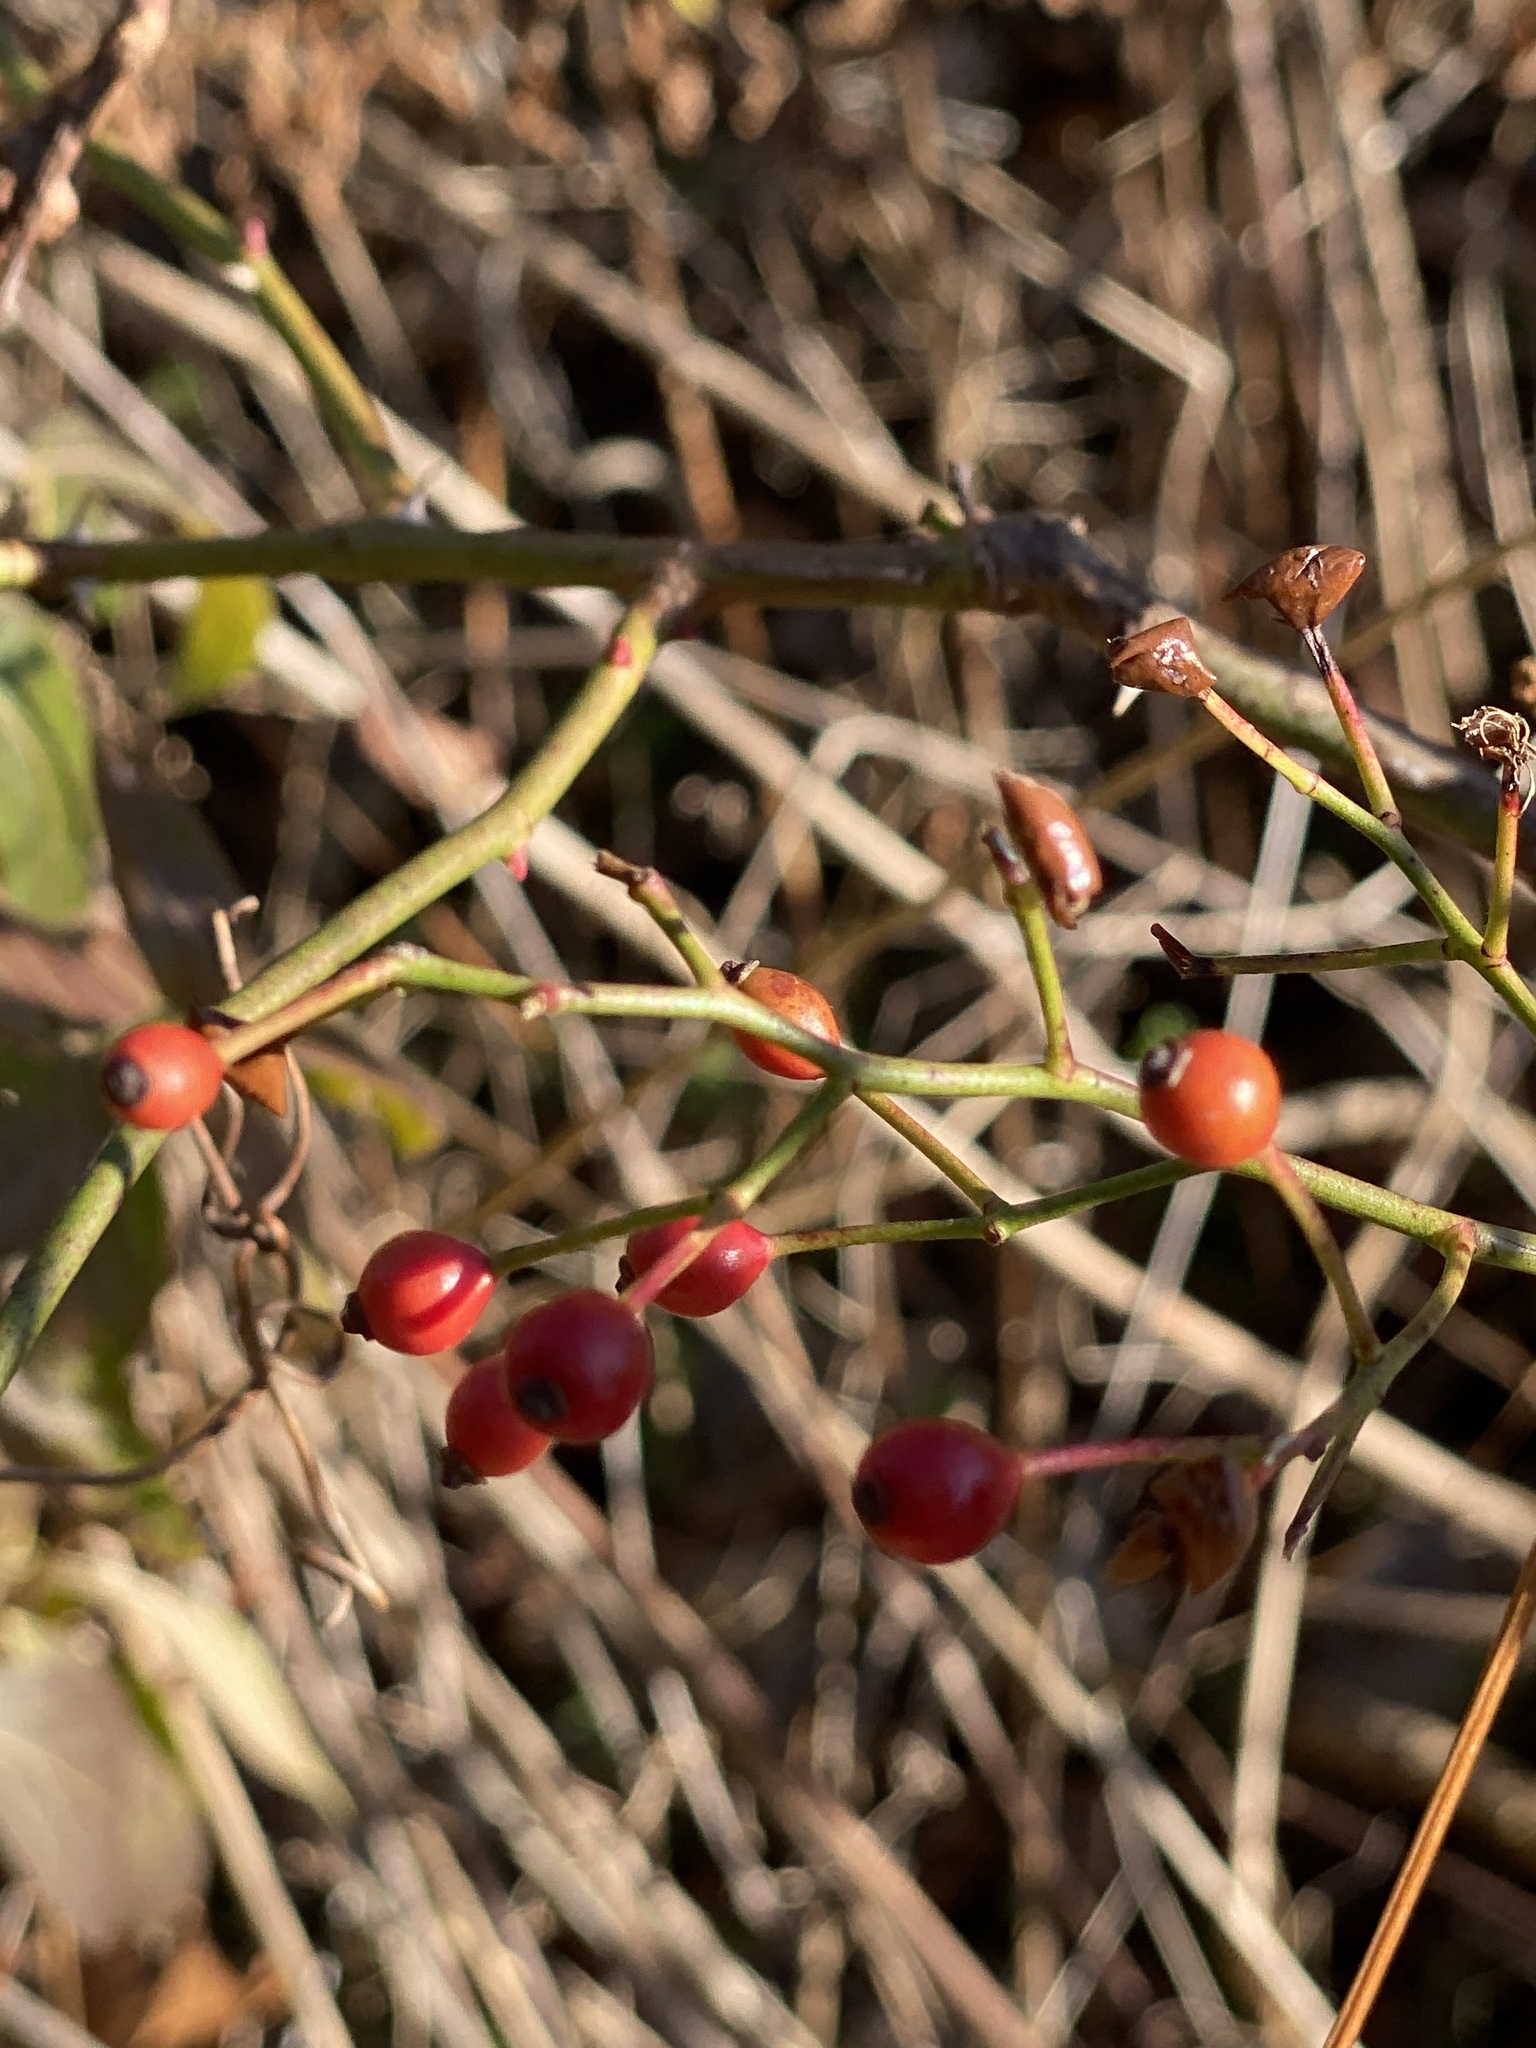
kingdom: Plantae
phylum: Tracheophyta
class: Magnoliopsida
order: Rosales
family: Rosaceae
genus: Rosa
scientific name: Rosa multiflora
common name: Multiflora rose
